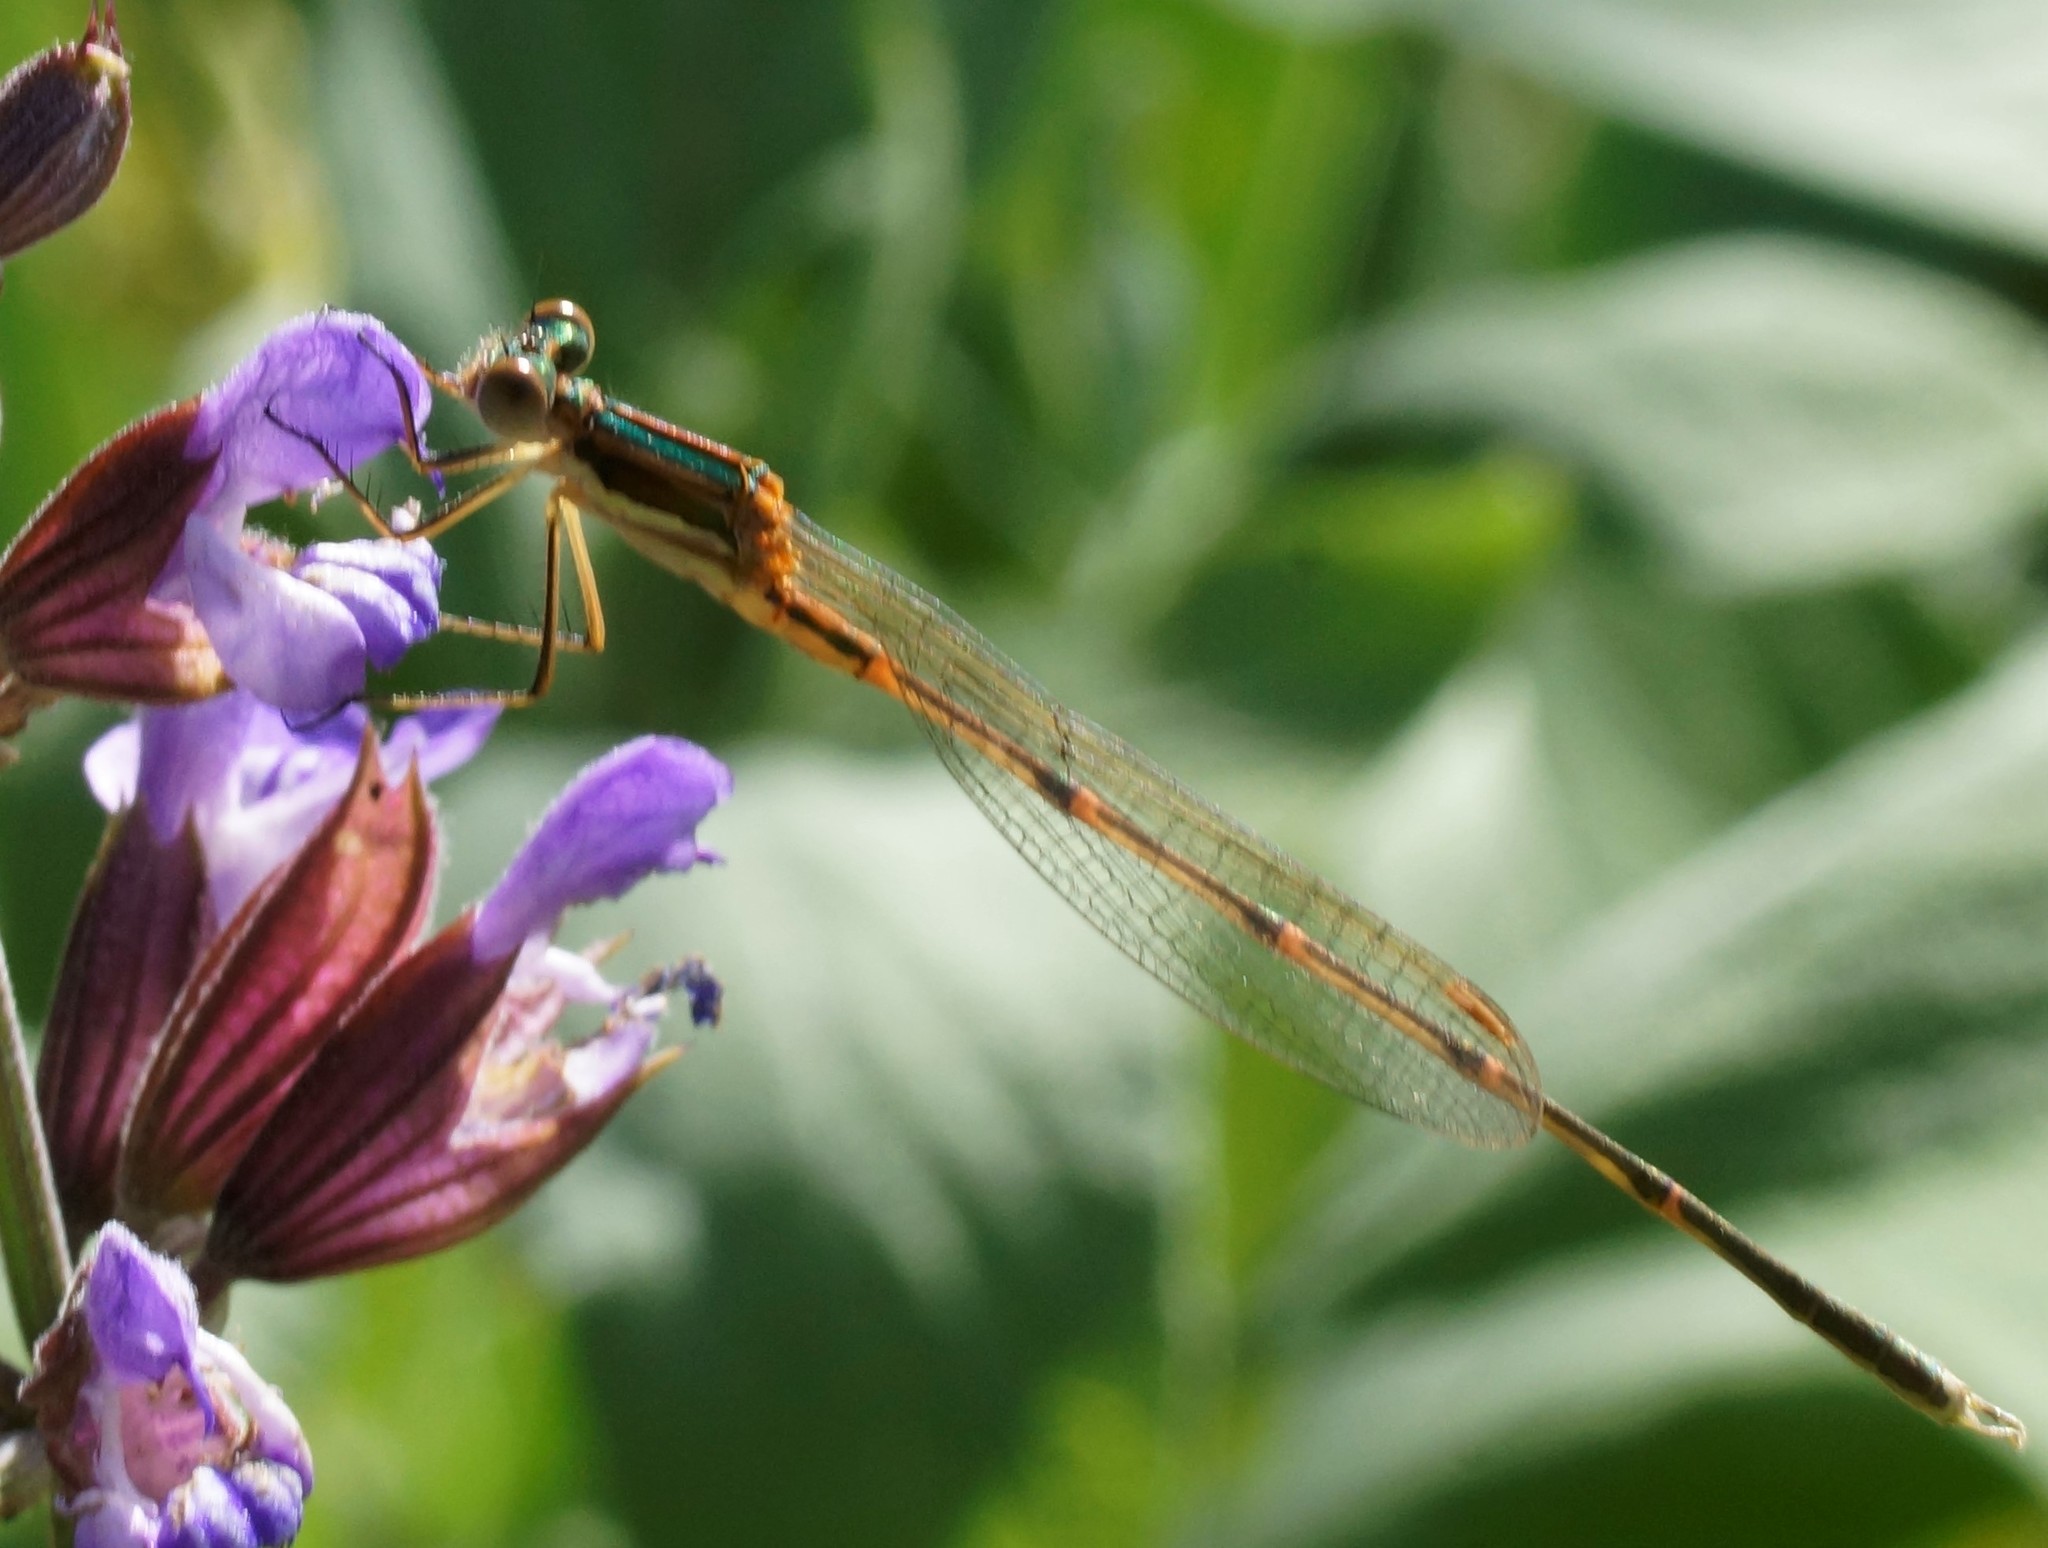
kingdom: Animalia
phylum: Arthropoda
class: Insecta
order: Odonata
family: Lestidae
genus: Austrolestes
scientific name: Austrolestes analis
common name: Slender ringtail
